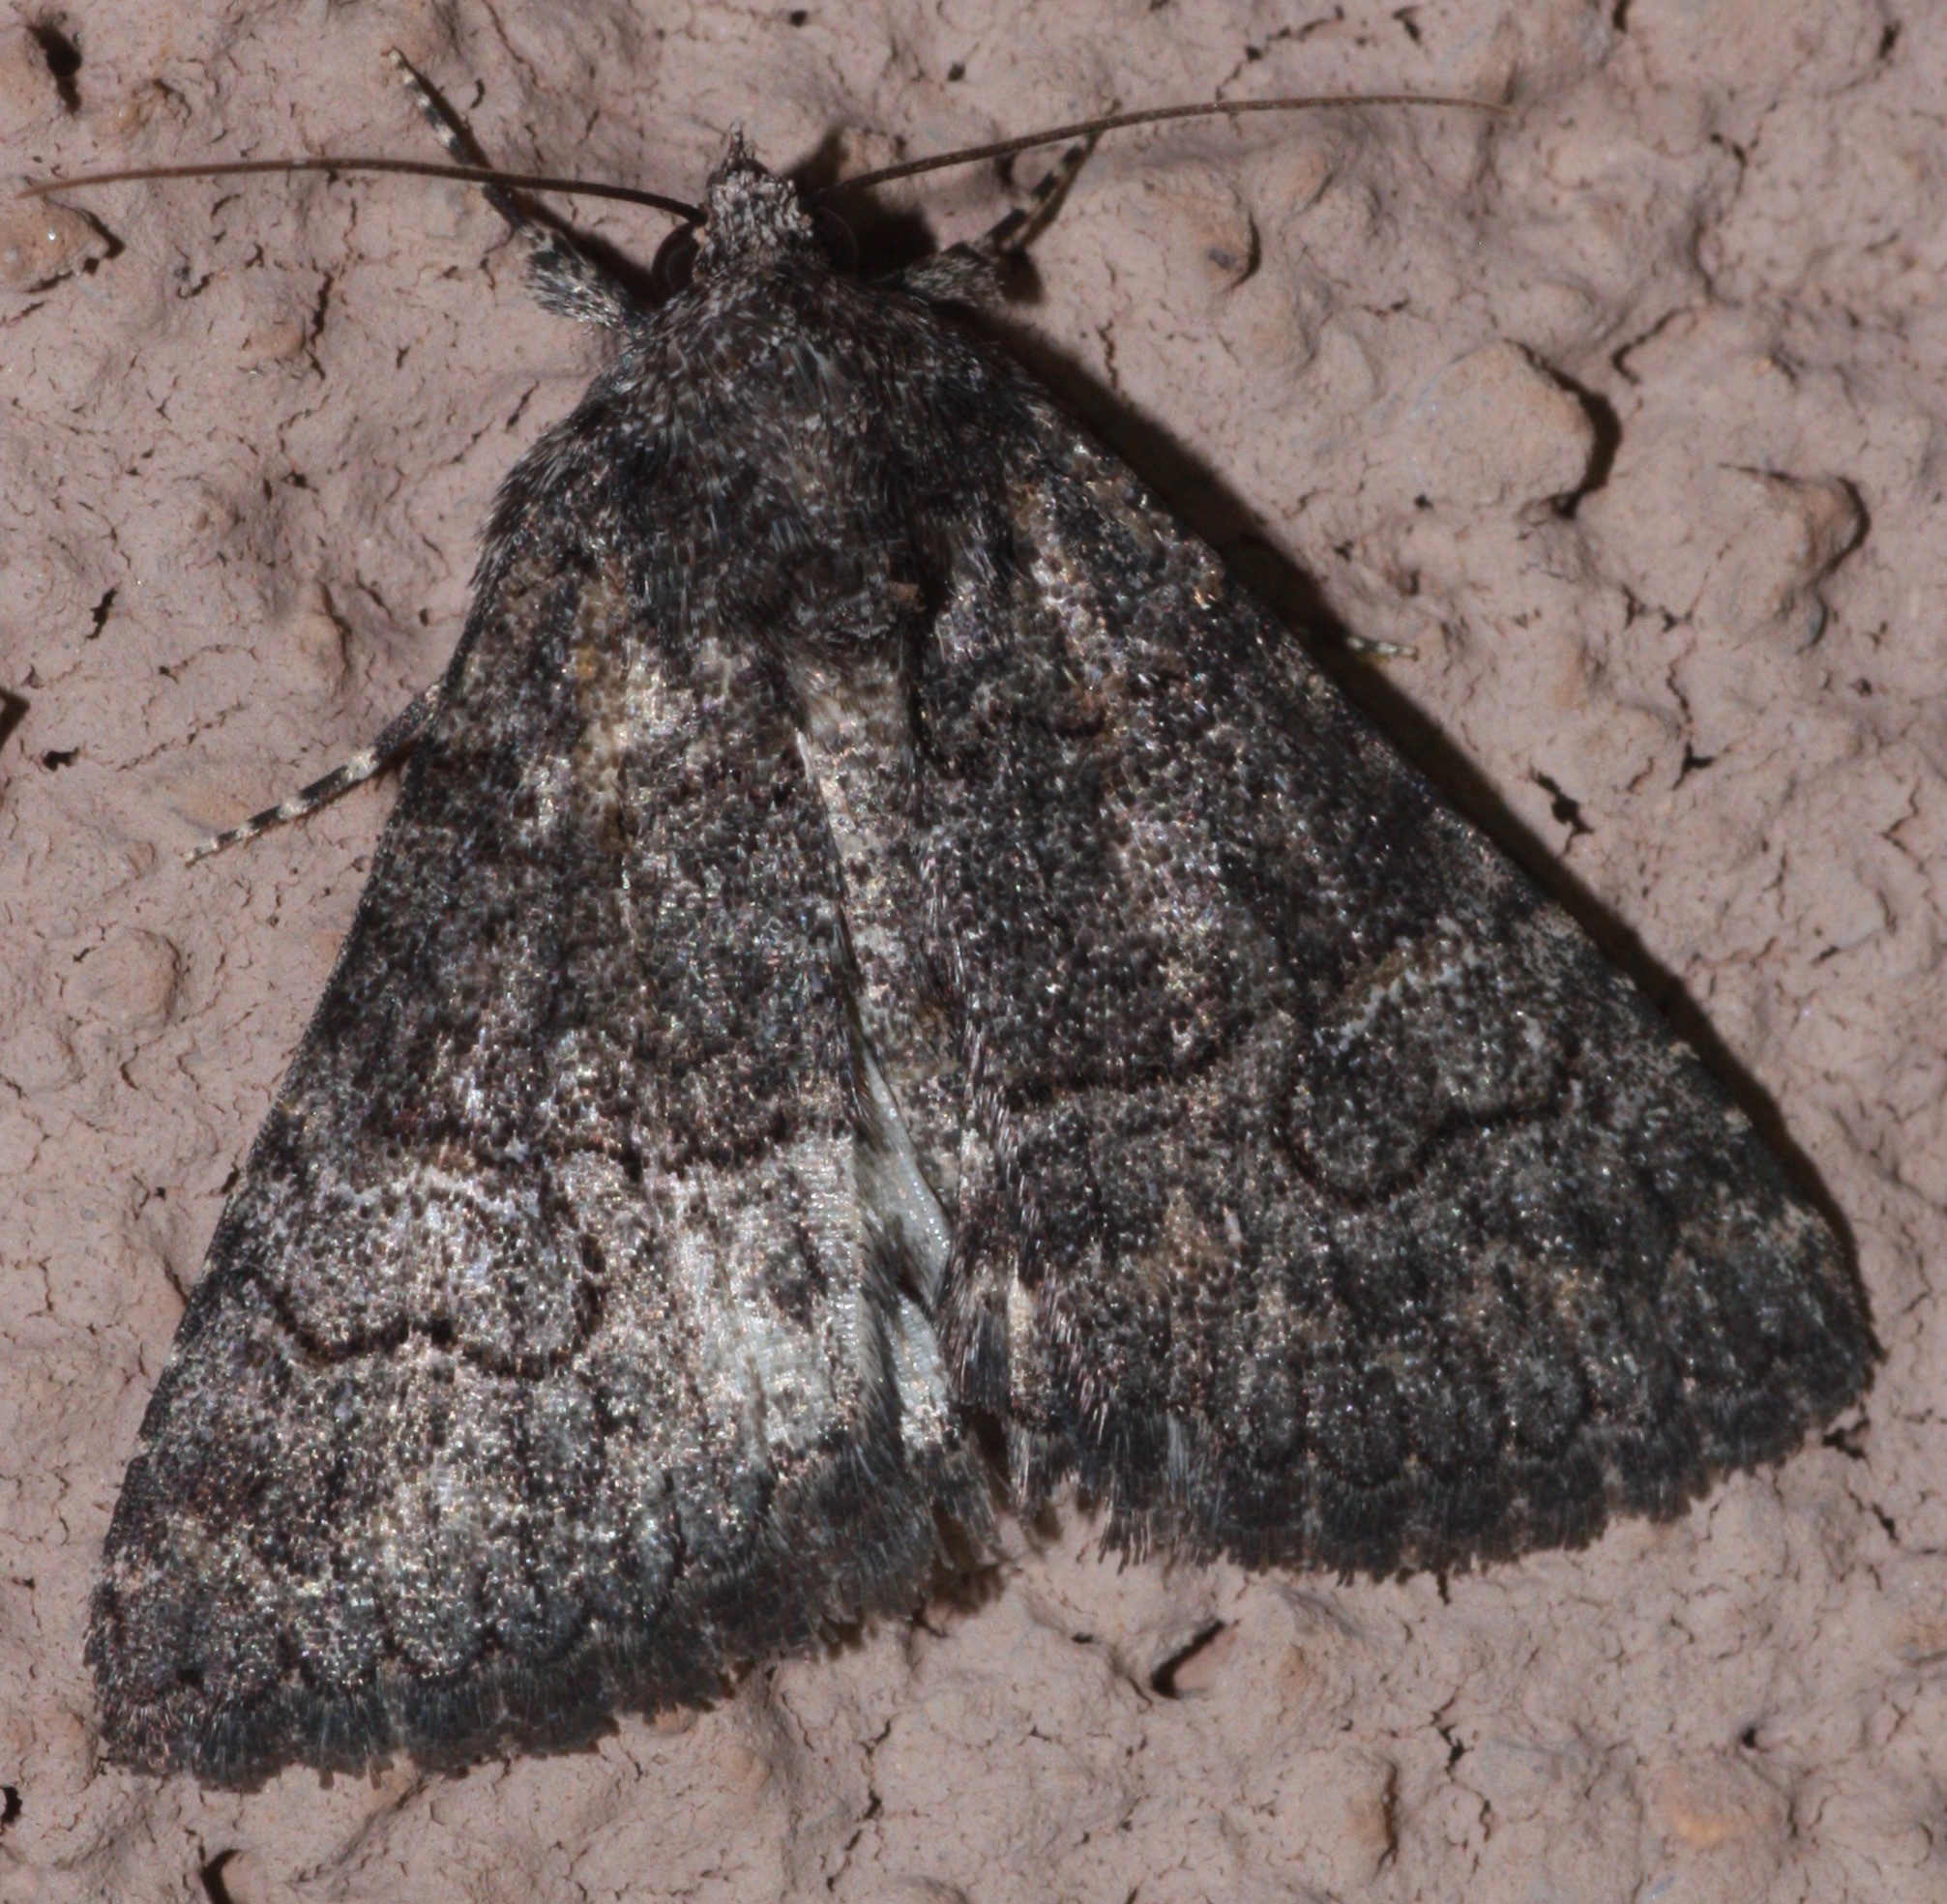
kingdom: Animalia
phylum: Arthropoda
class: Insecta
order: Lepidoptera
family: Erebidae
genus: Elousa
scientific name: Elousa mima
